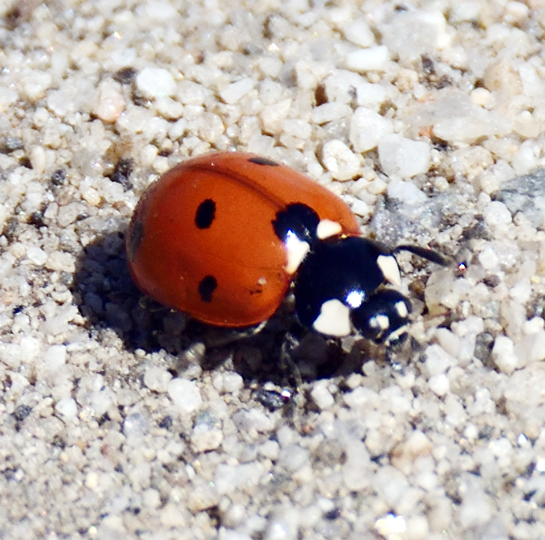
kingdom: Animalia
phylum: Arthropoda
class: Insecta
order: Coleoptera
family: Coccinellidae
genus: Coccinella
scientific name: Coccinella septempunctata
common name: Sevenspotted lady beetle
